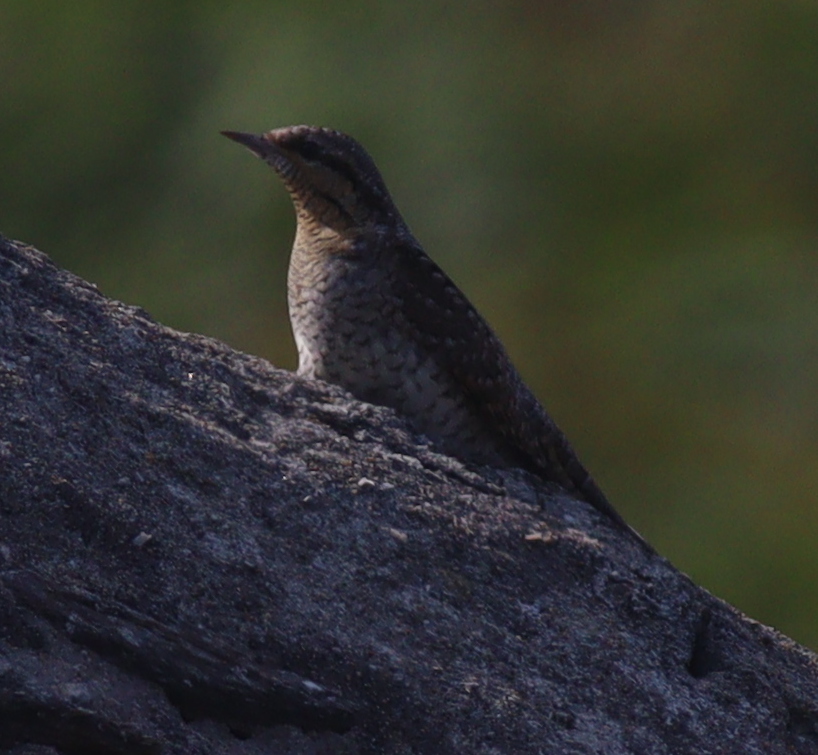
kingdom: Animalia
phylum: Chordata
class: Aves
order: Piciformes
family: Picidae
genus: Jynx
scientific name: Jynx torquilla
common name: Eurasian wryneck
